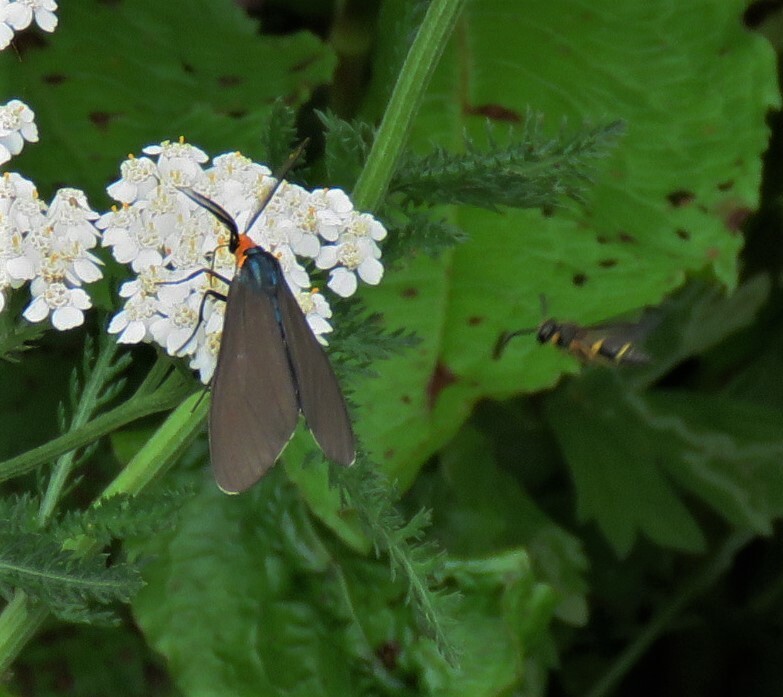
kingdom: Animalia
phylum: Arthropoda
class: Insecta
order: Lepidoptera
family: Erebidae
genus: Ctenucha
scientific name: Ctenucha virginica
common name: Virginia ctenucha moth
